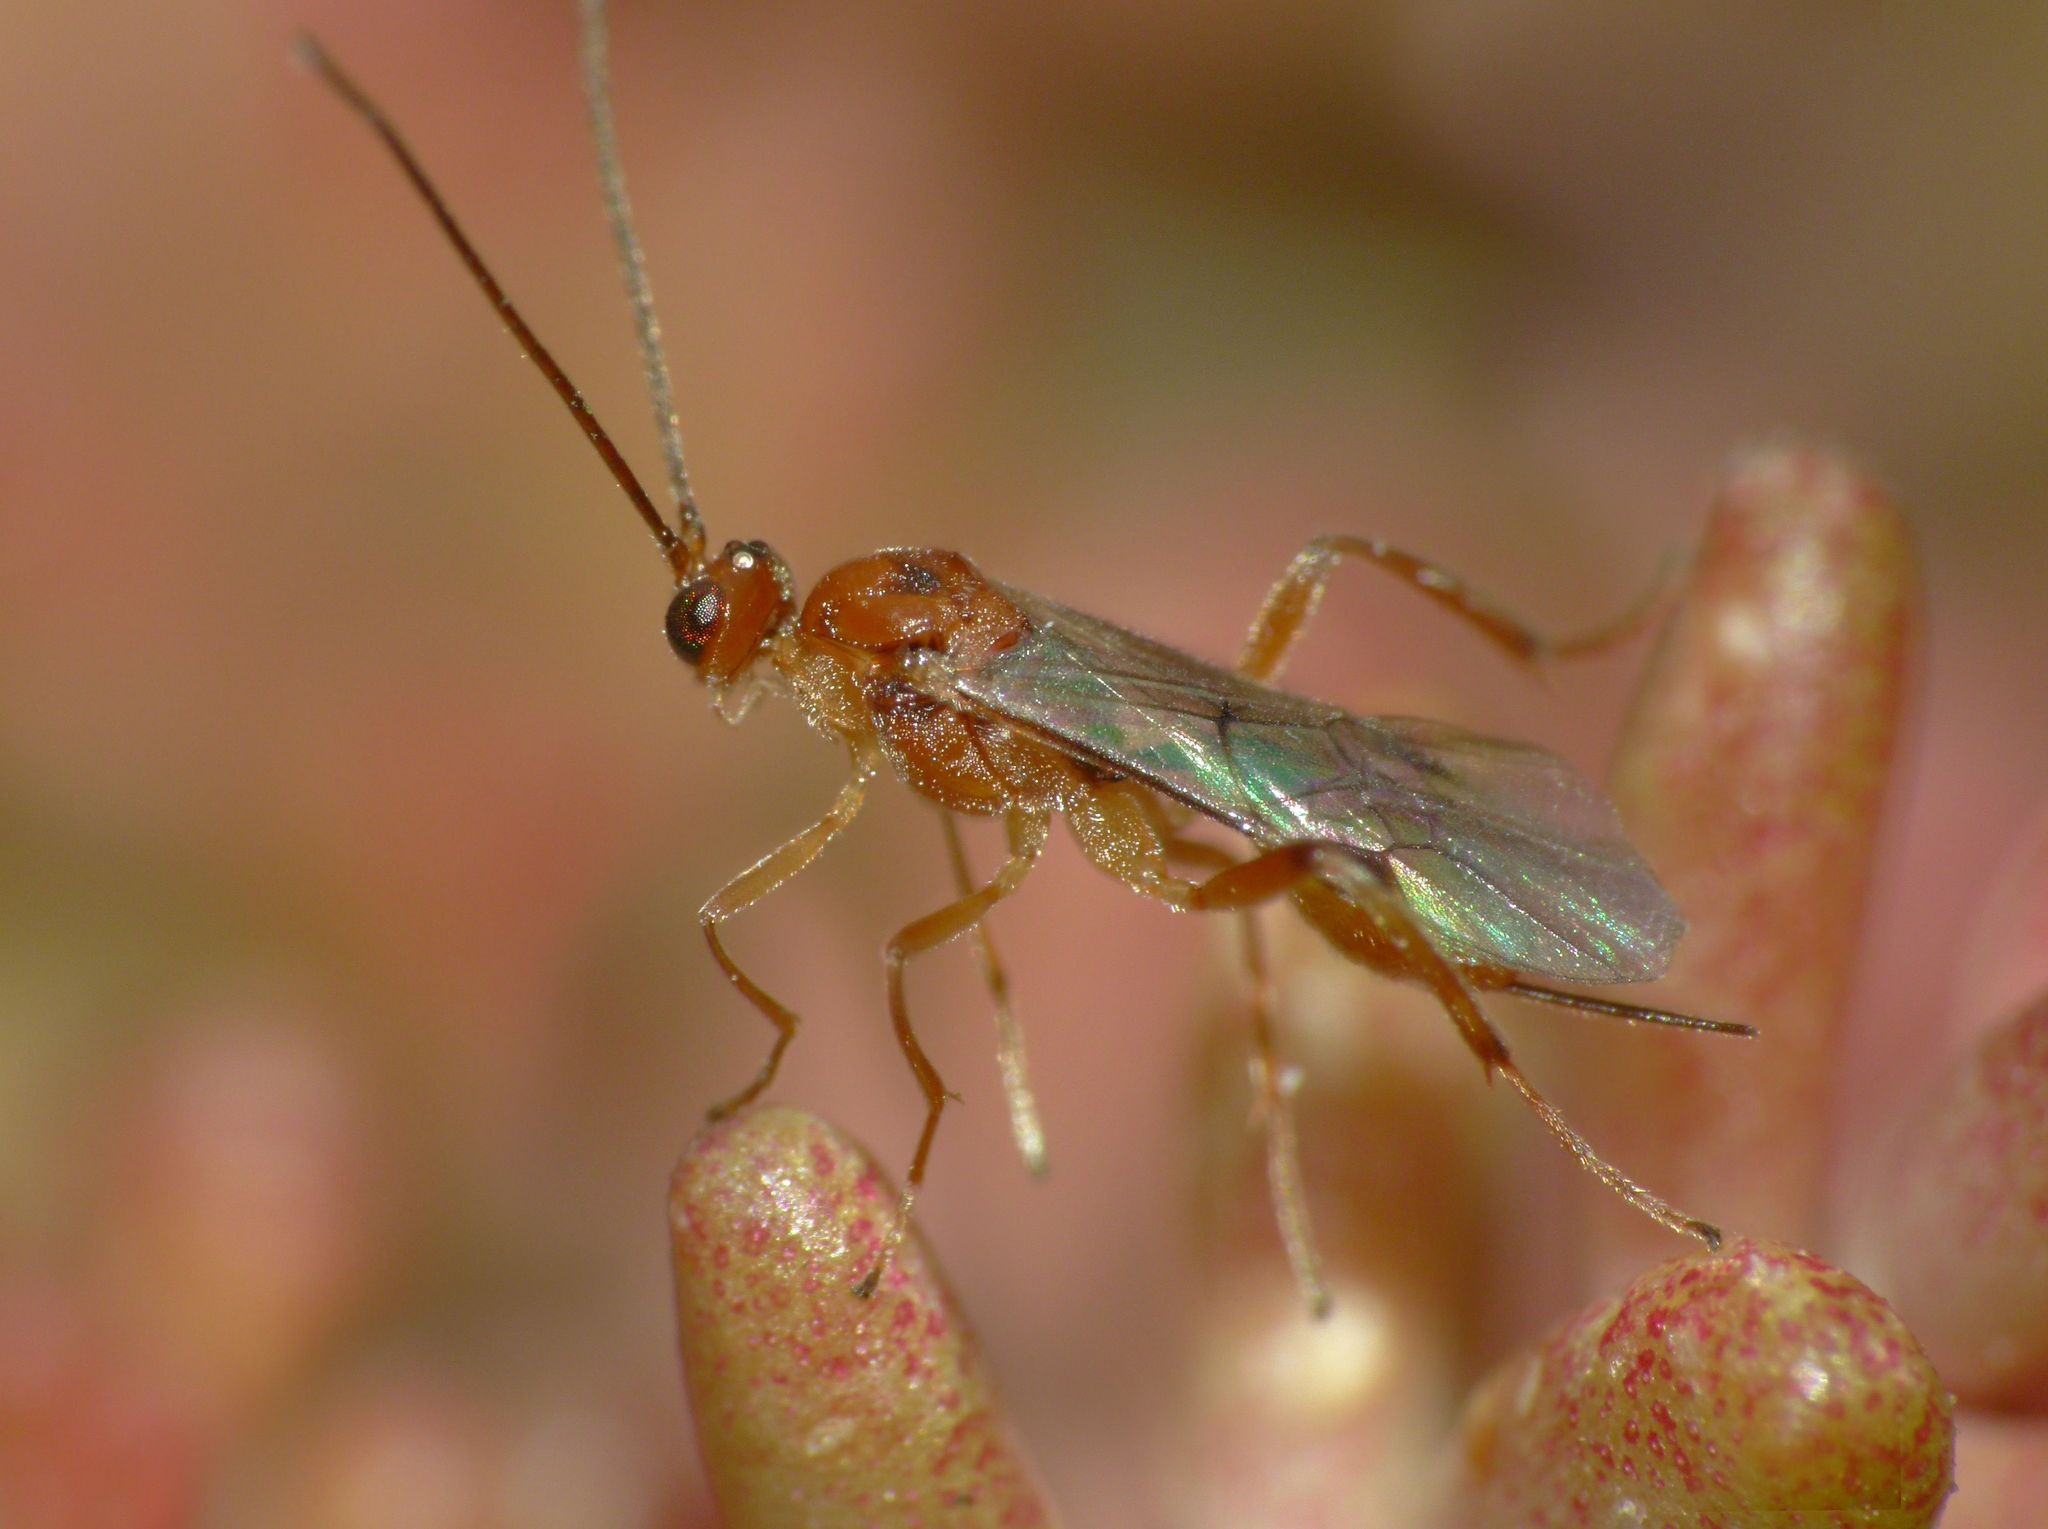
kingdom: Animalia
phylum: Arthropoda
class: Insecta
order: Hymenoptera
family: Braconidae
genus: Meteorus
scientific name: Meteorus pulchricornis
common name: Braconid wasp
